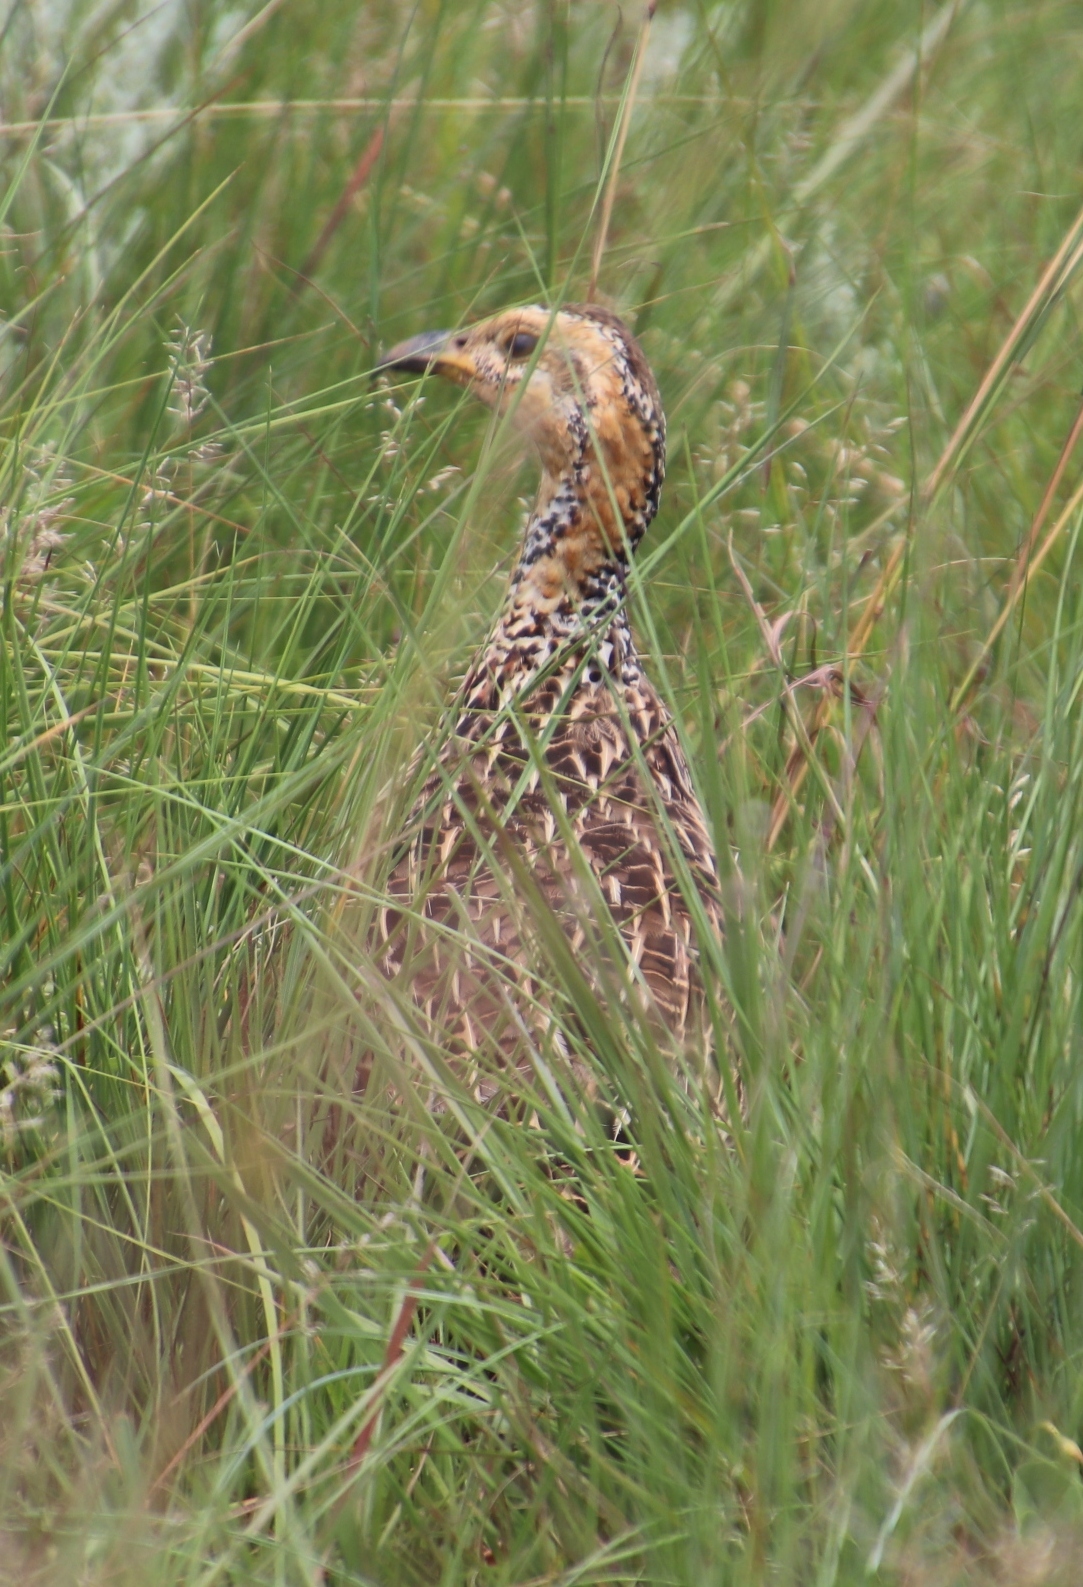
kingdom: Animalia
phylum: Chordata
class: Aves
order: Galliformes
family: Phasianidae
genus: Scleroptila
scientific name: Scleroptila levaillantii
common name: Red-winged francolin
